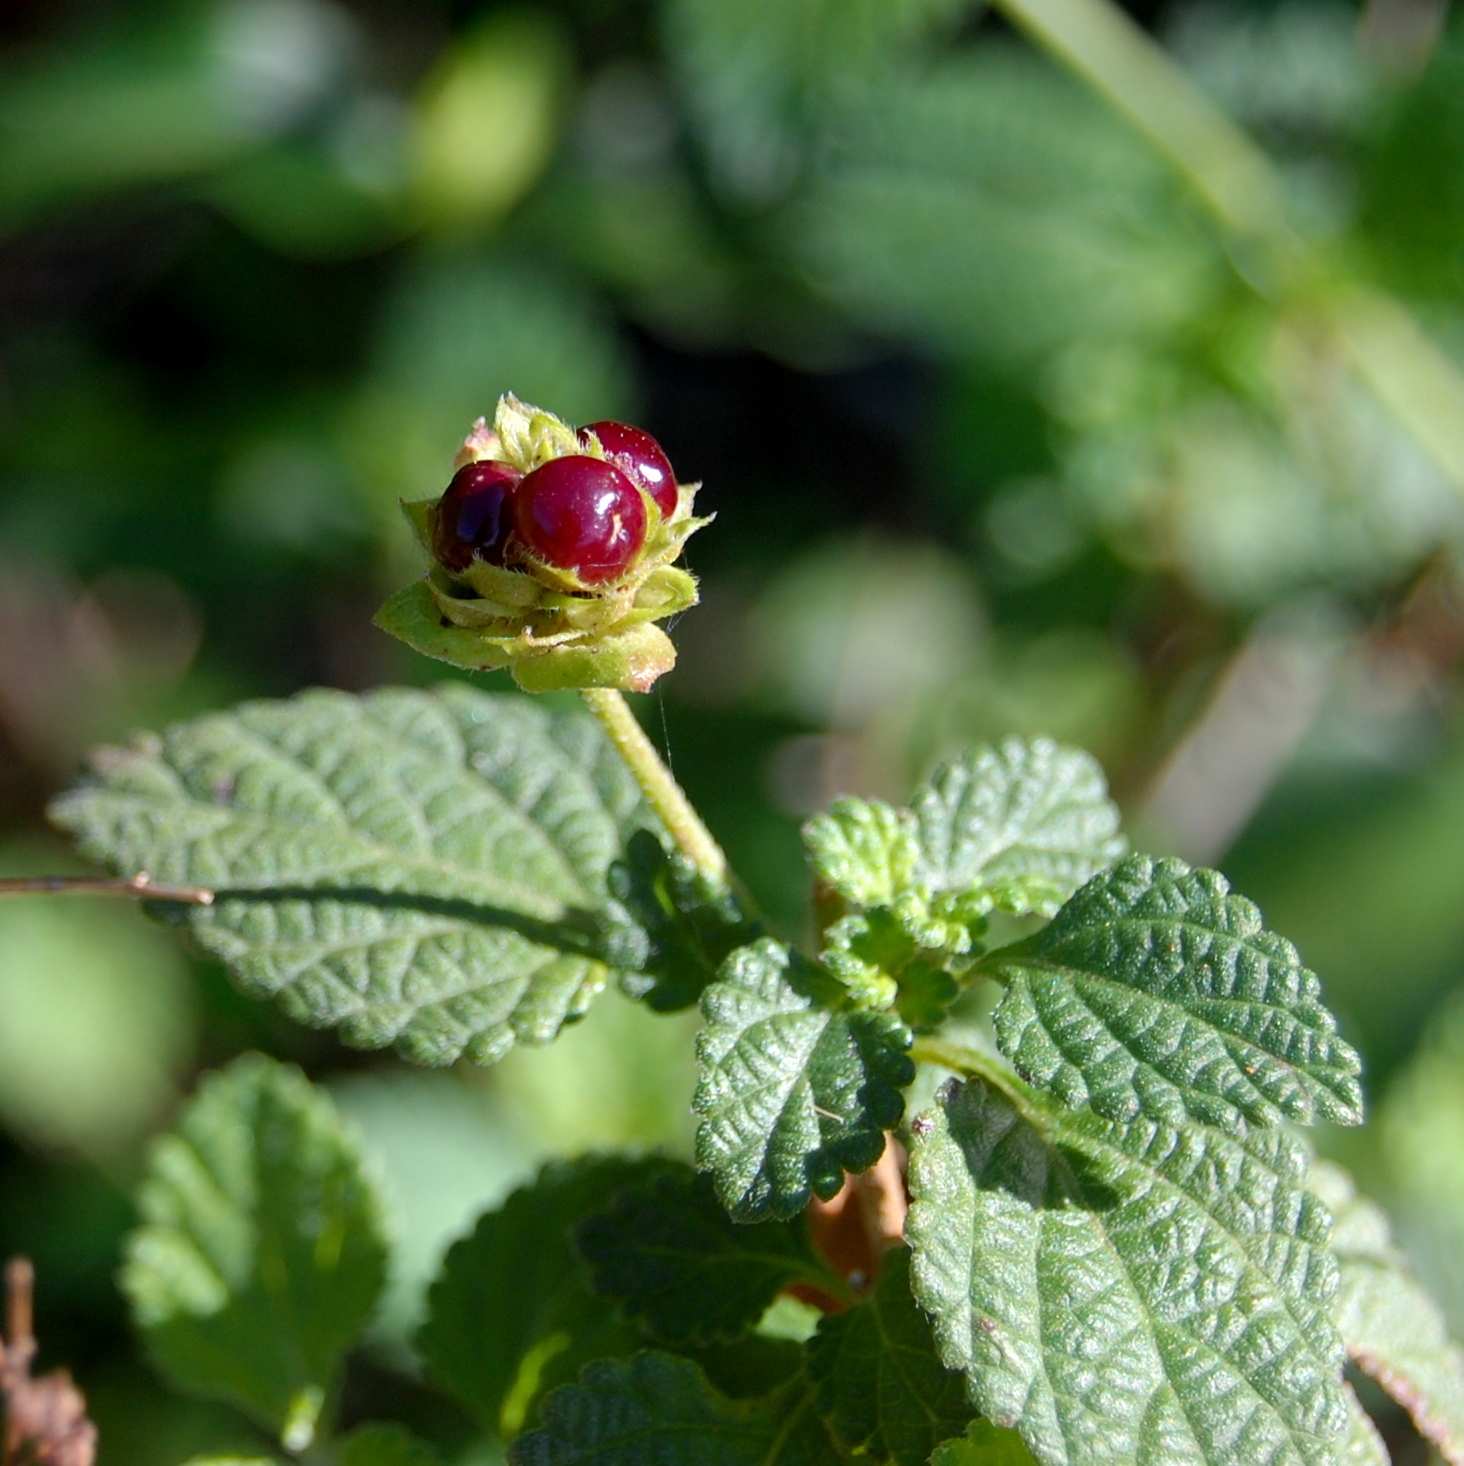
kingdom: Plantae
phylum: Tracheophyta
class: Magnoliopsida
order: Lamiales
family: Verbenaceae
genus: Lantana
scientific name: Lantana fucata
